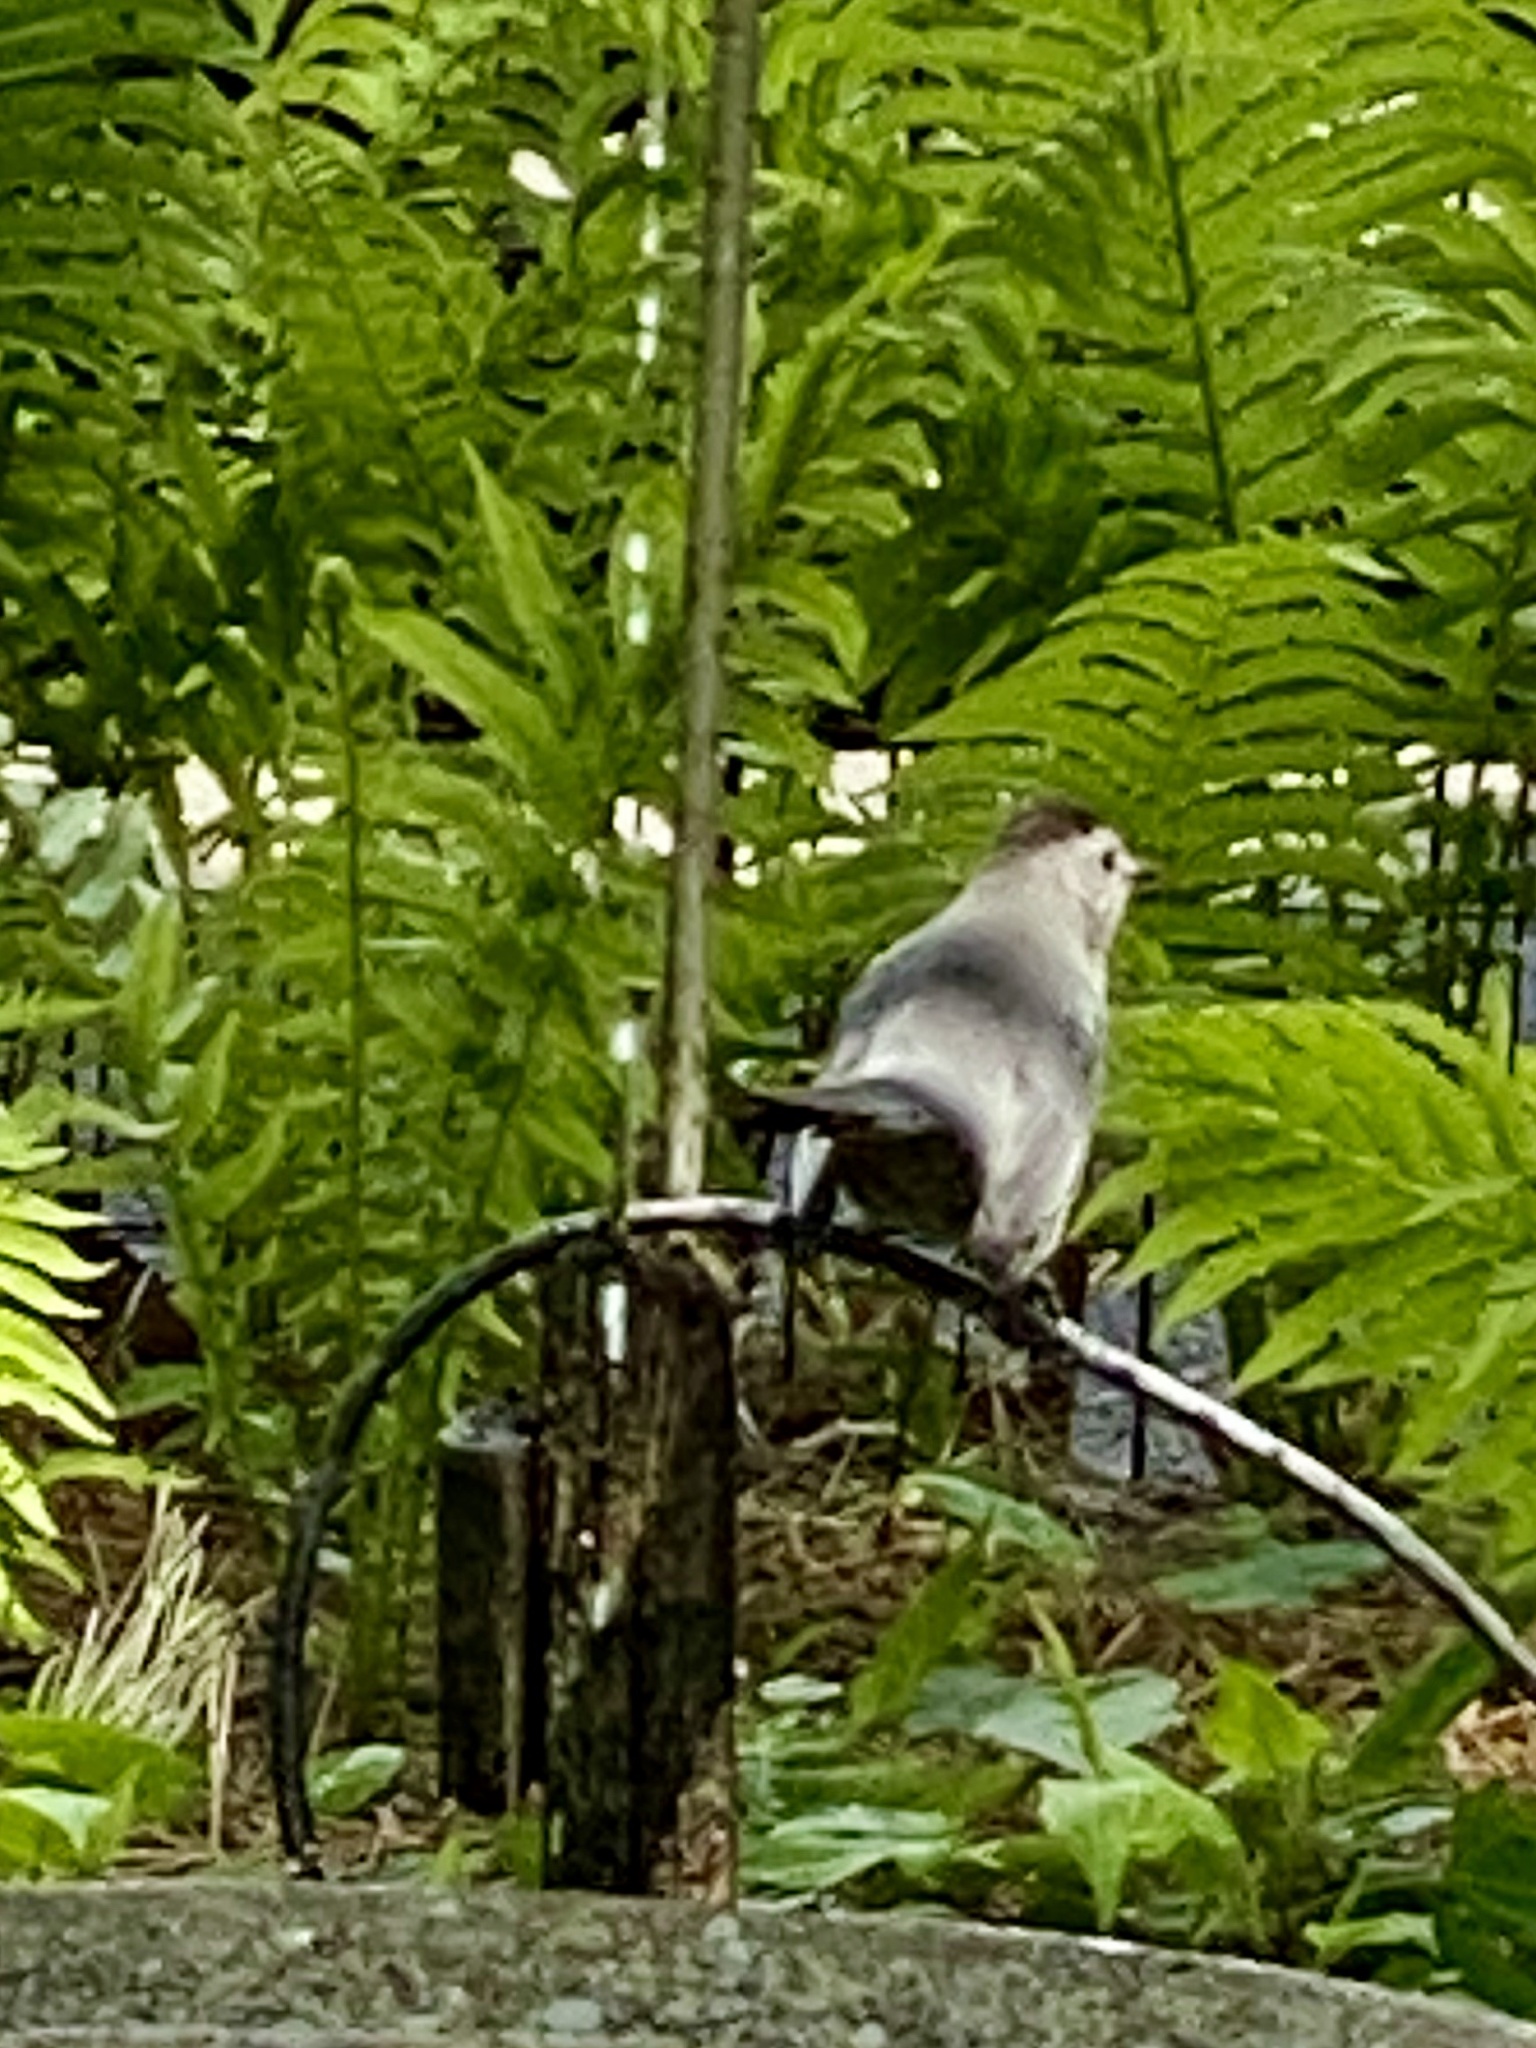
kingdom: Animalia
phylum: Chordata
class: Aves
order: Passeriformes
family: Mimidae
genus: Dumetella
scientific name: Dumetella carolinensis
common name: Gray catbird
